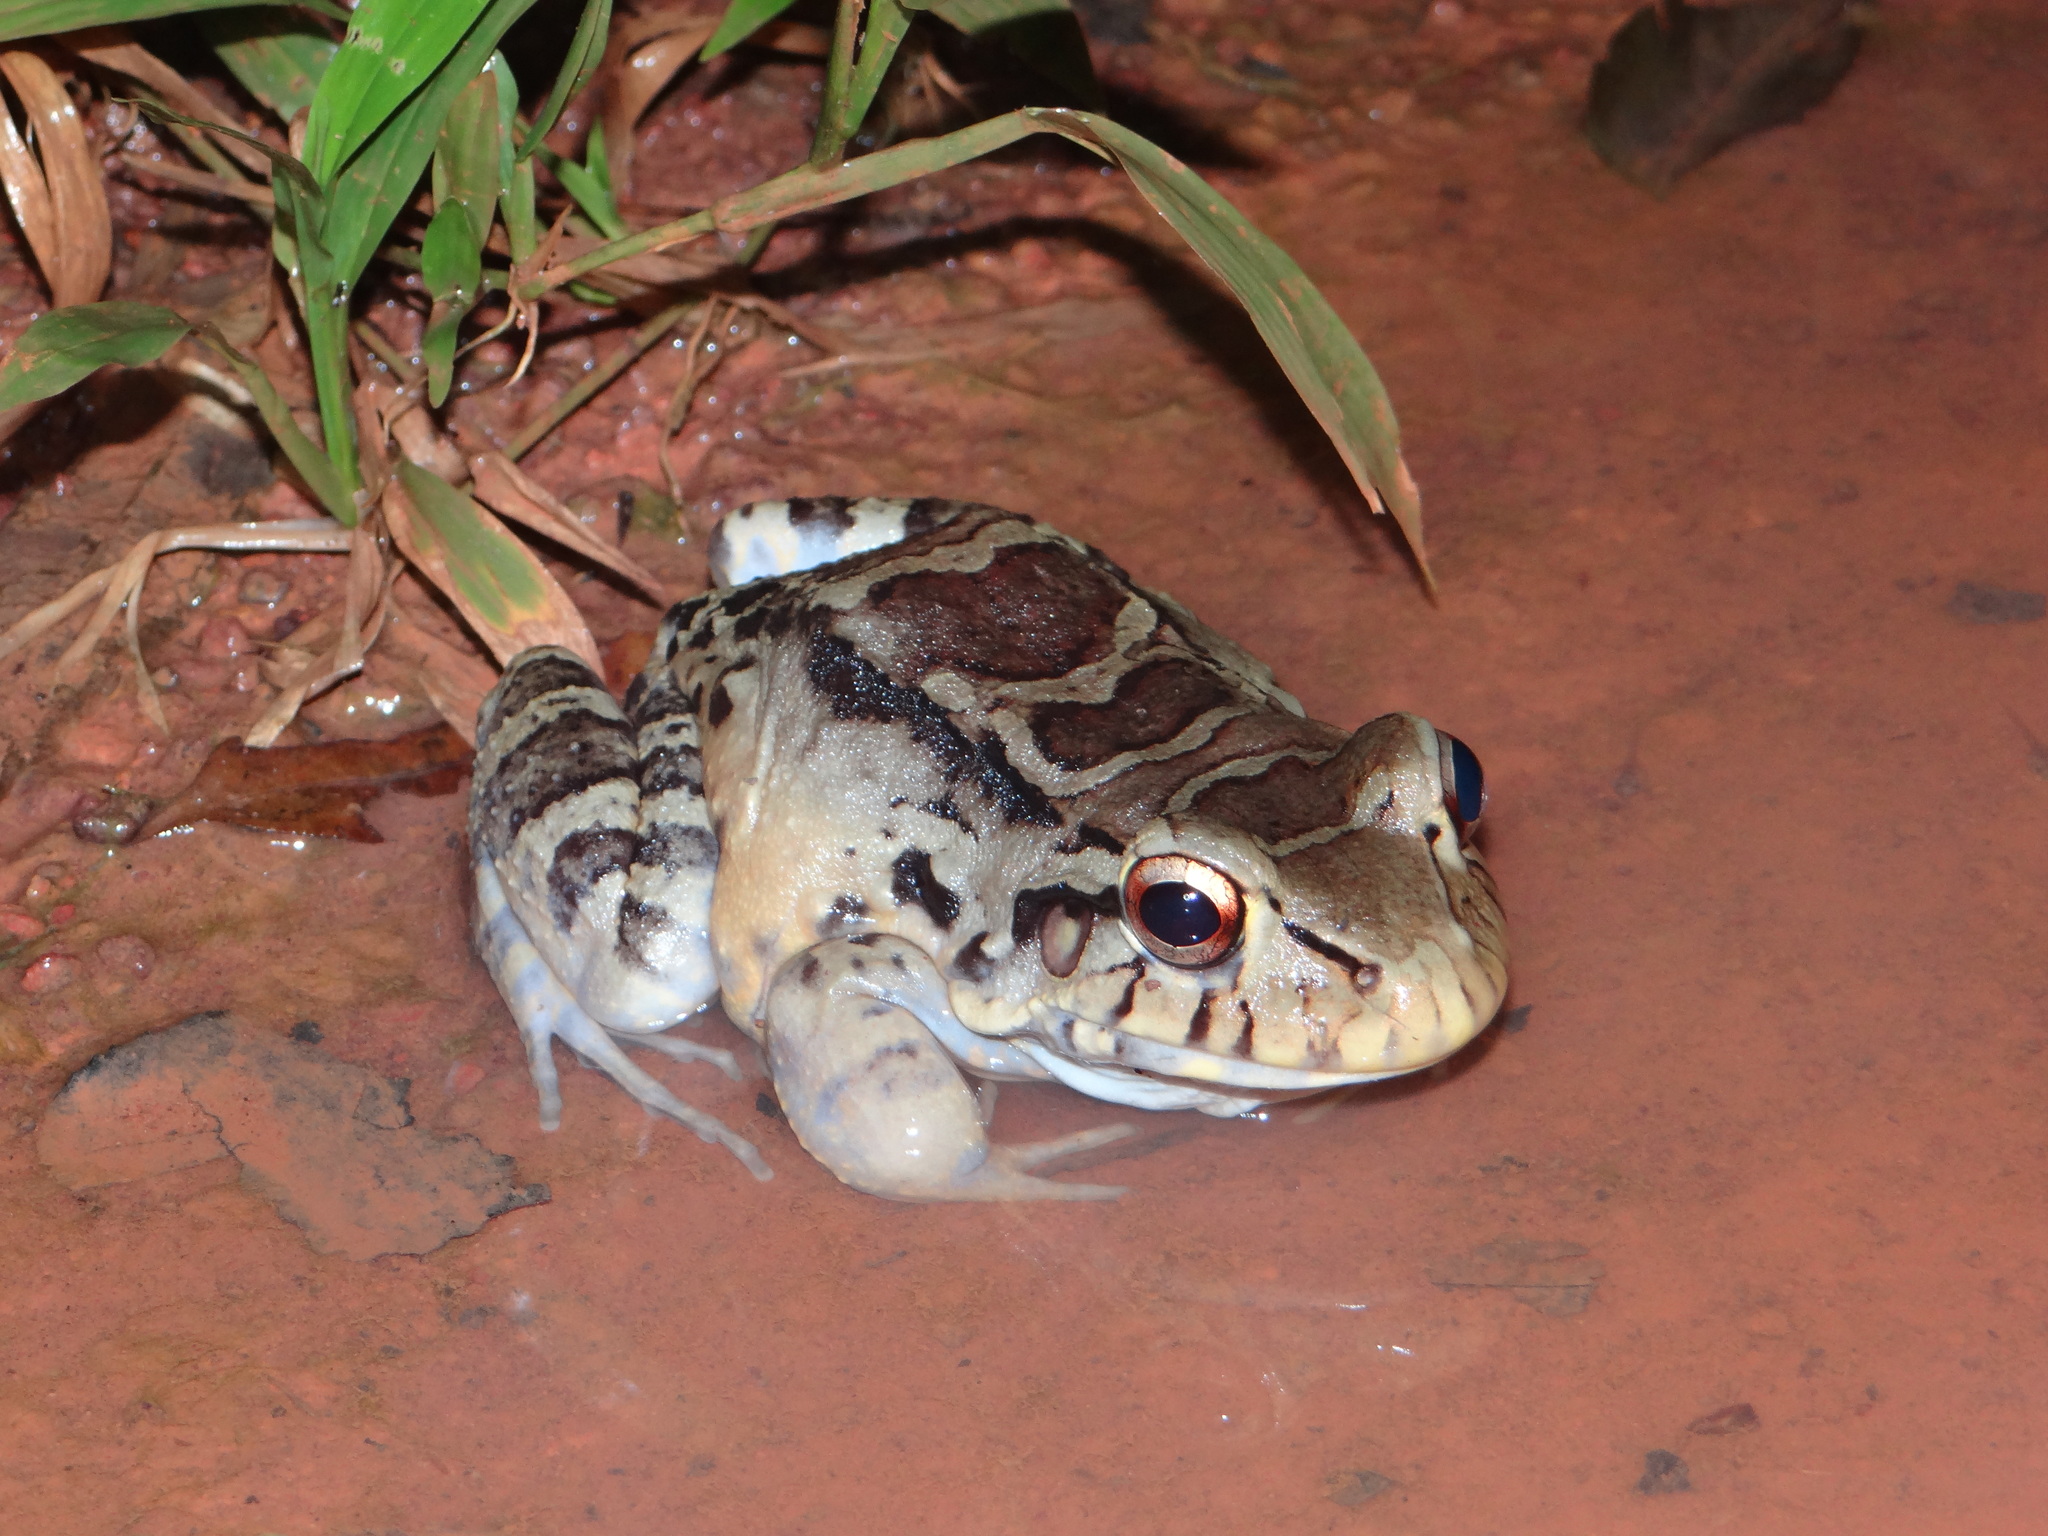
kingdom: Animalia
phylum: Chordata
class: Amphibia
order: Anura
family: Leptodactylidae
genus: Leptodactylus
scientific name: Leptodactylus knudseni
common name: Knudsen's frog
